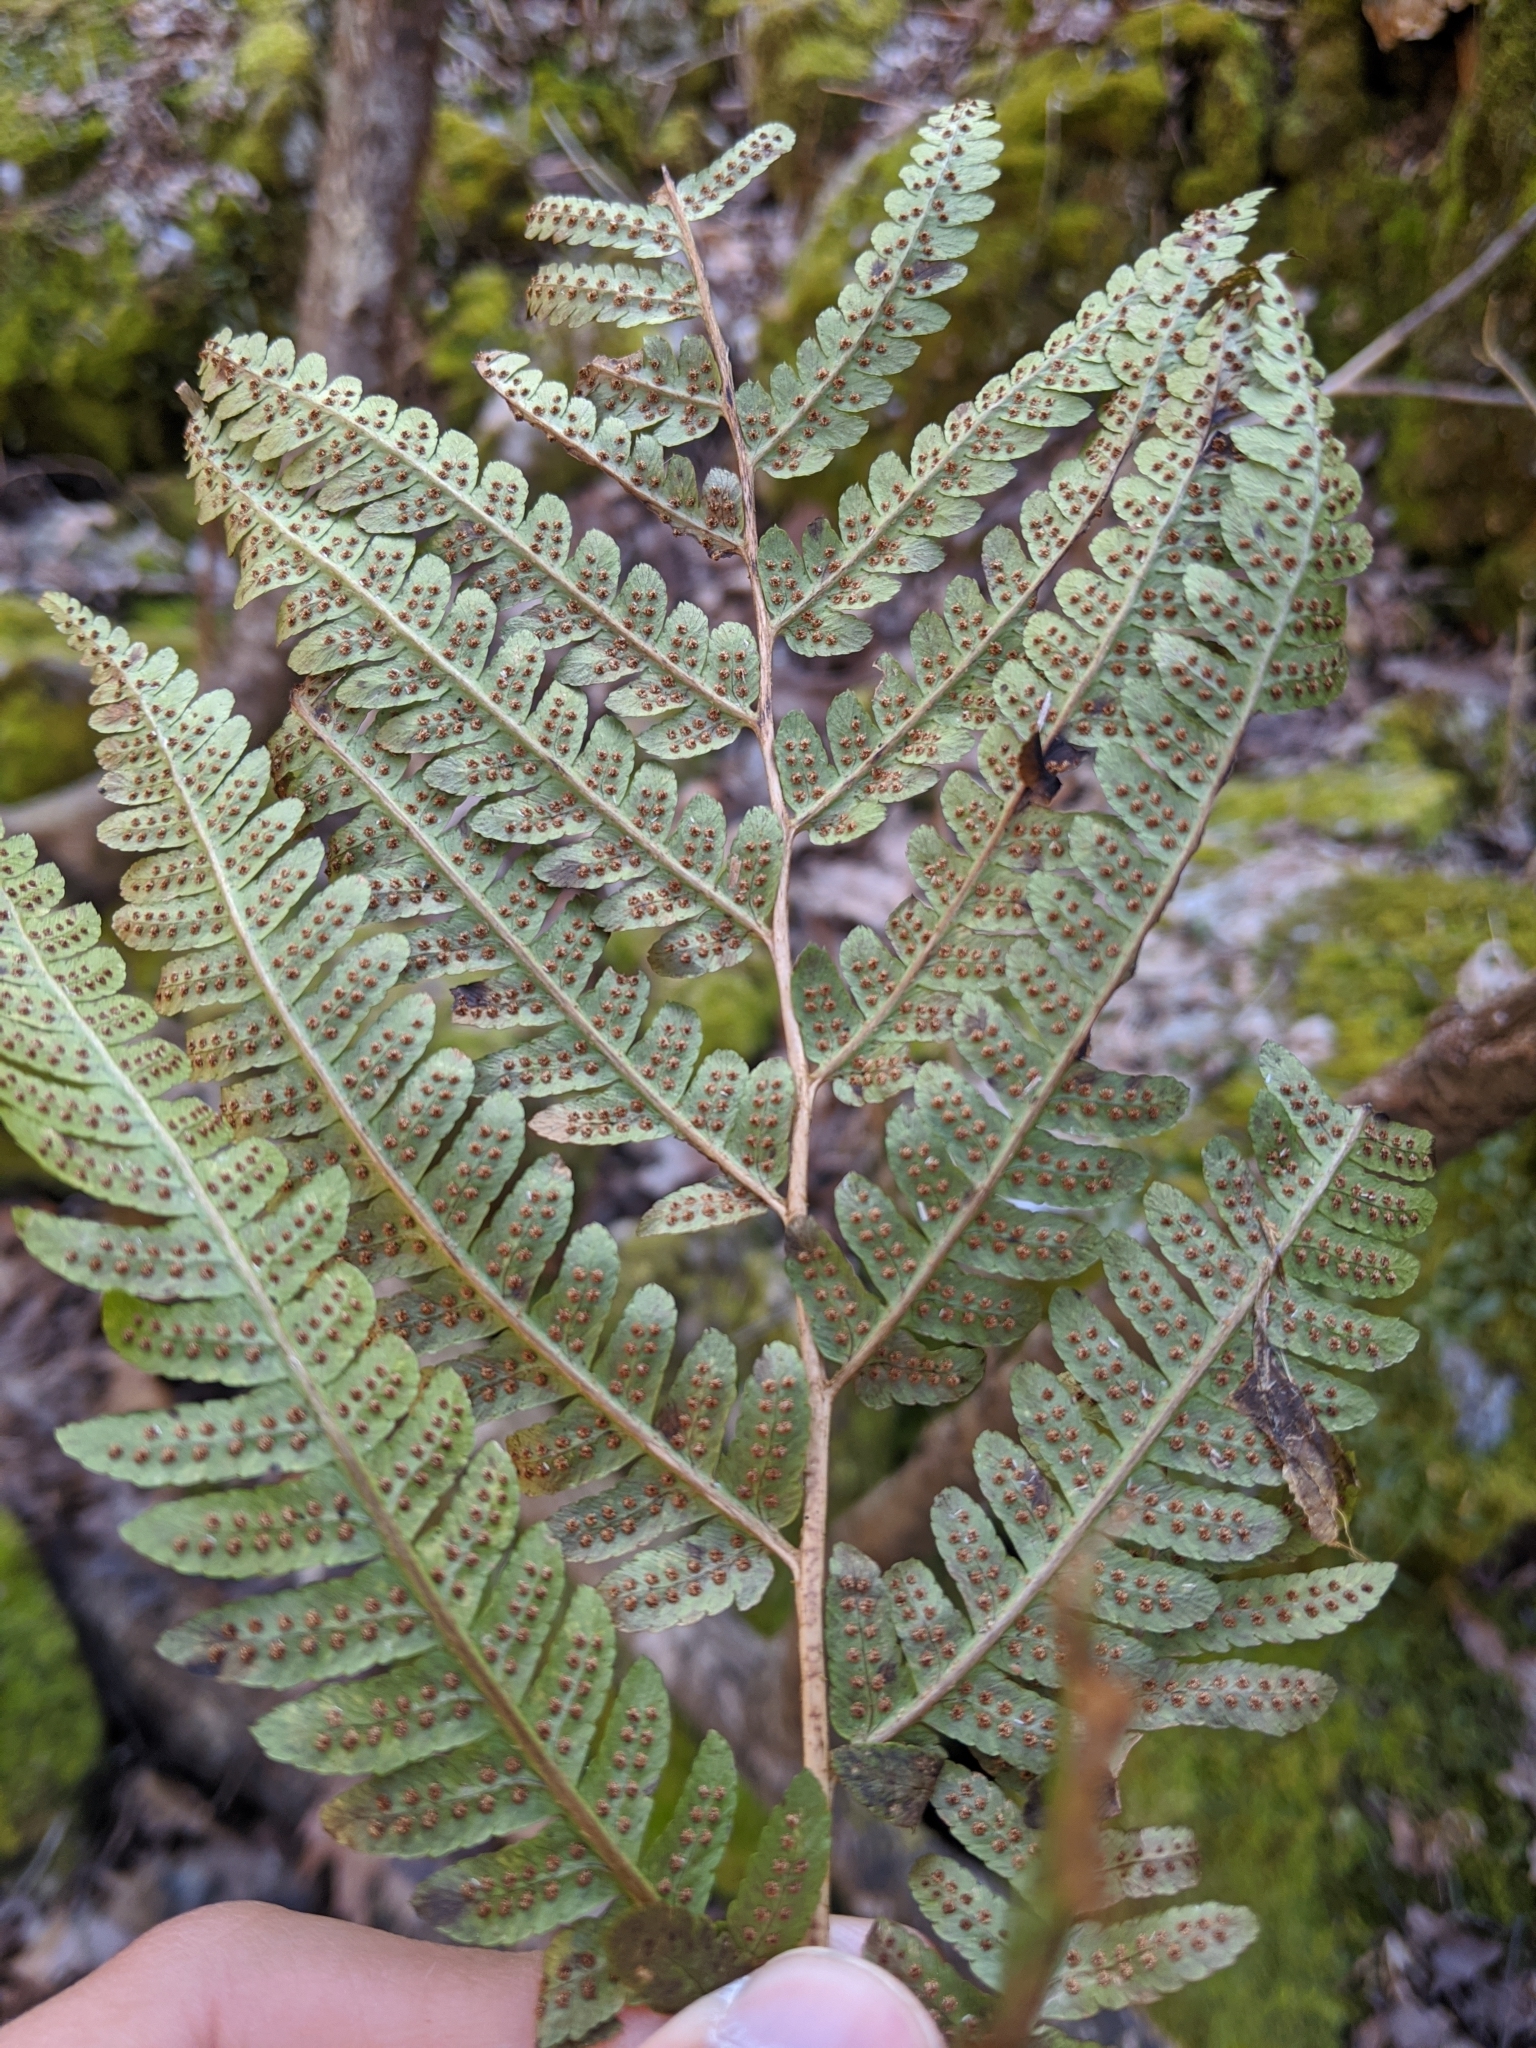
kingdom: Plantae
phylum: Tracheophyta
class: Polypodiopsida
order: Polypodiales
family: Dryopteridaceae
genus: Dryopteris
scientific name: Dryopteris goldieana
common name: Goldie's fern
